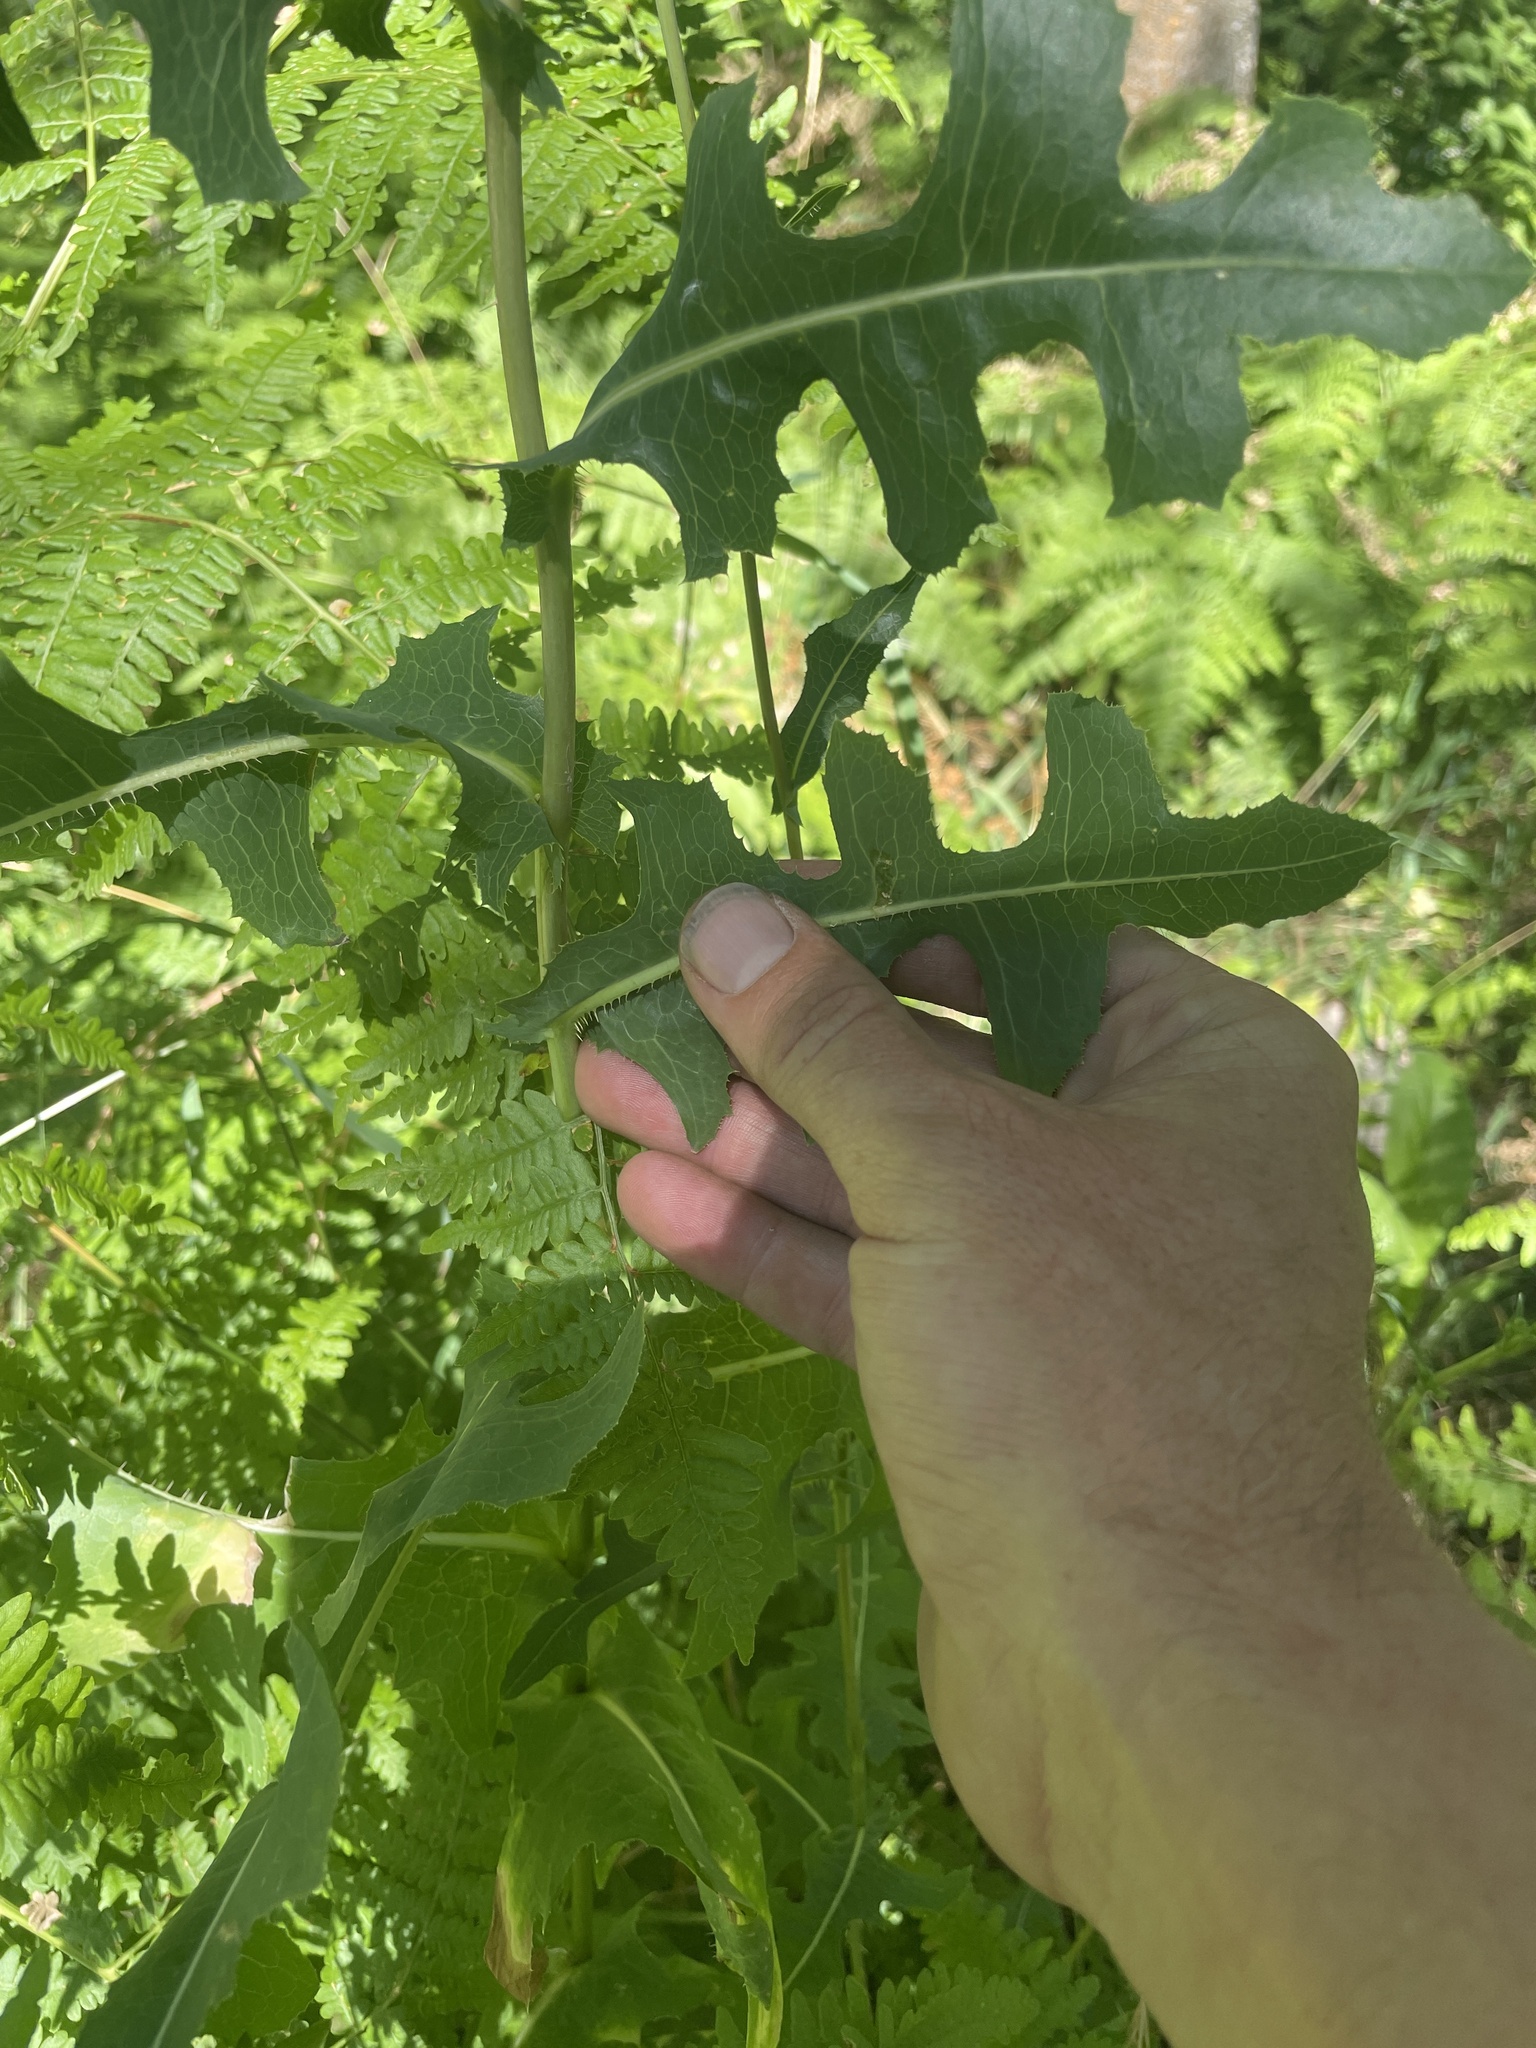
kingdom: Plantae
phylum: Tracheophyta
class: Magnoliopsida
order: Asterales
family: Asteraceae
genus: Lactuca
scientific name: Lactuca serriola
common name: Prickly lettuce
